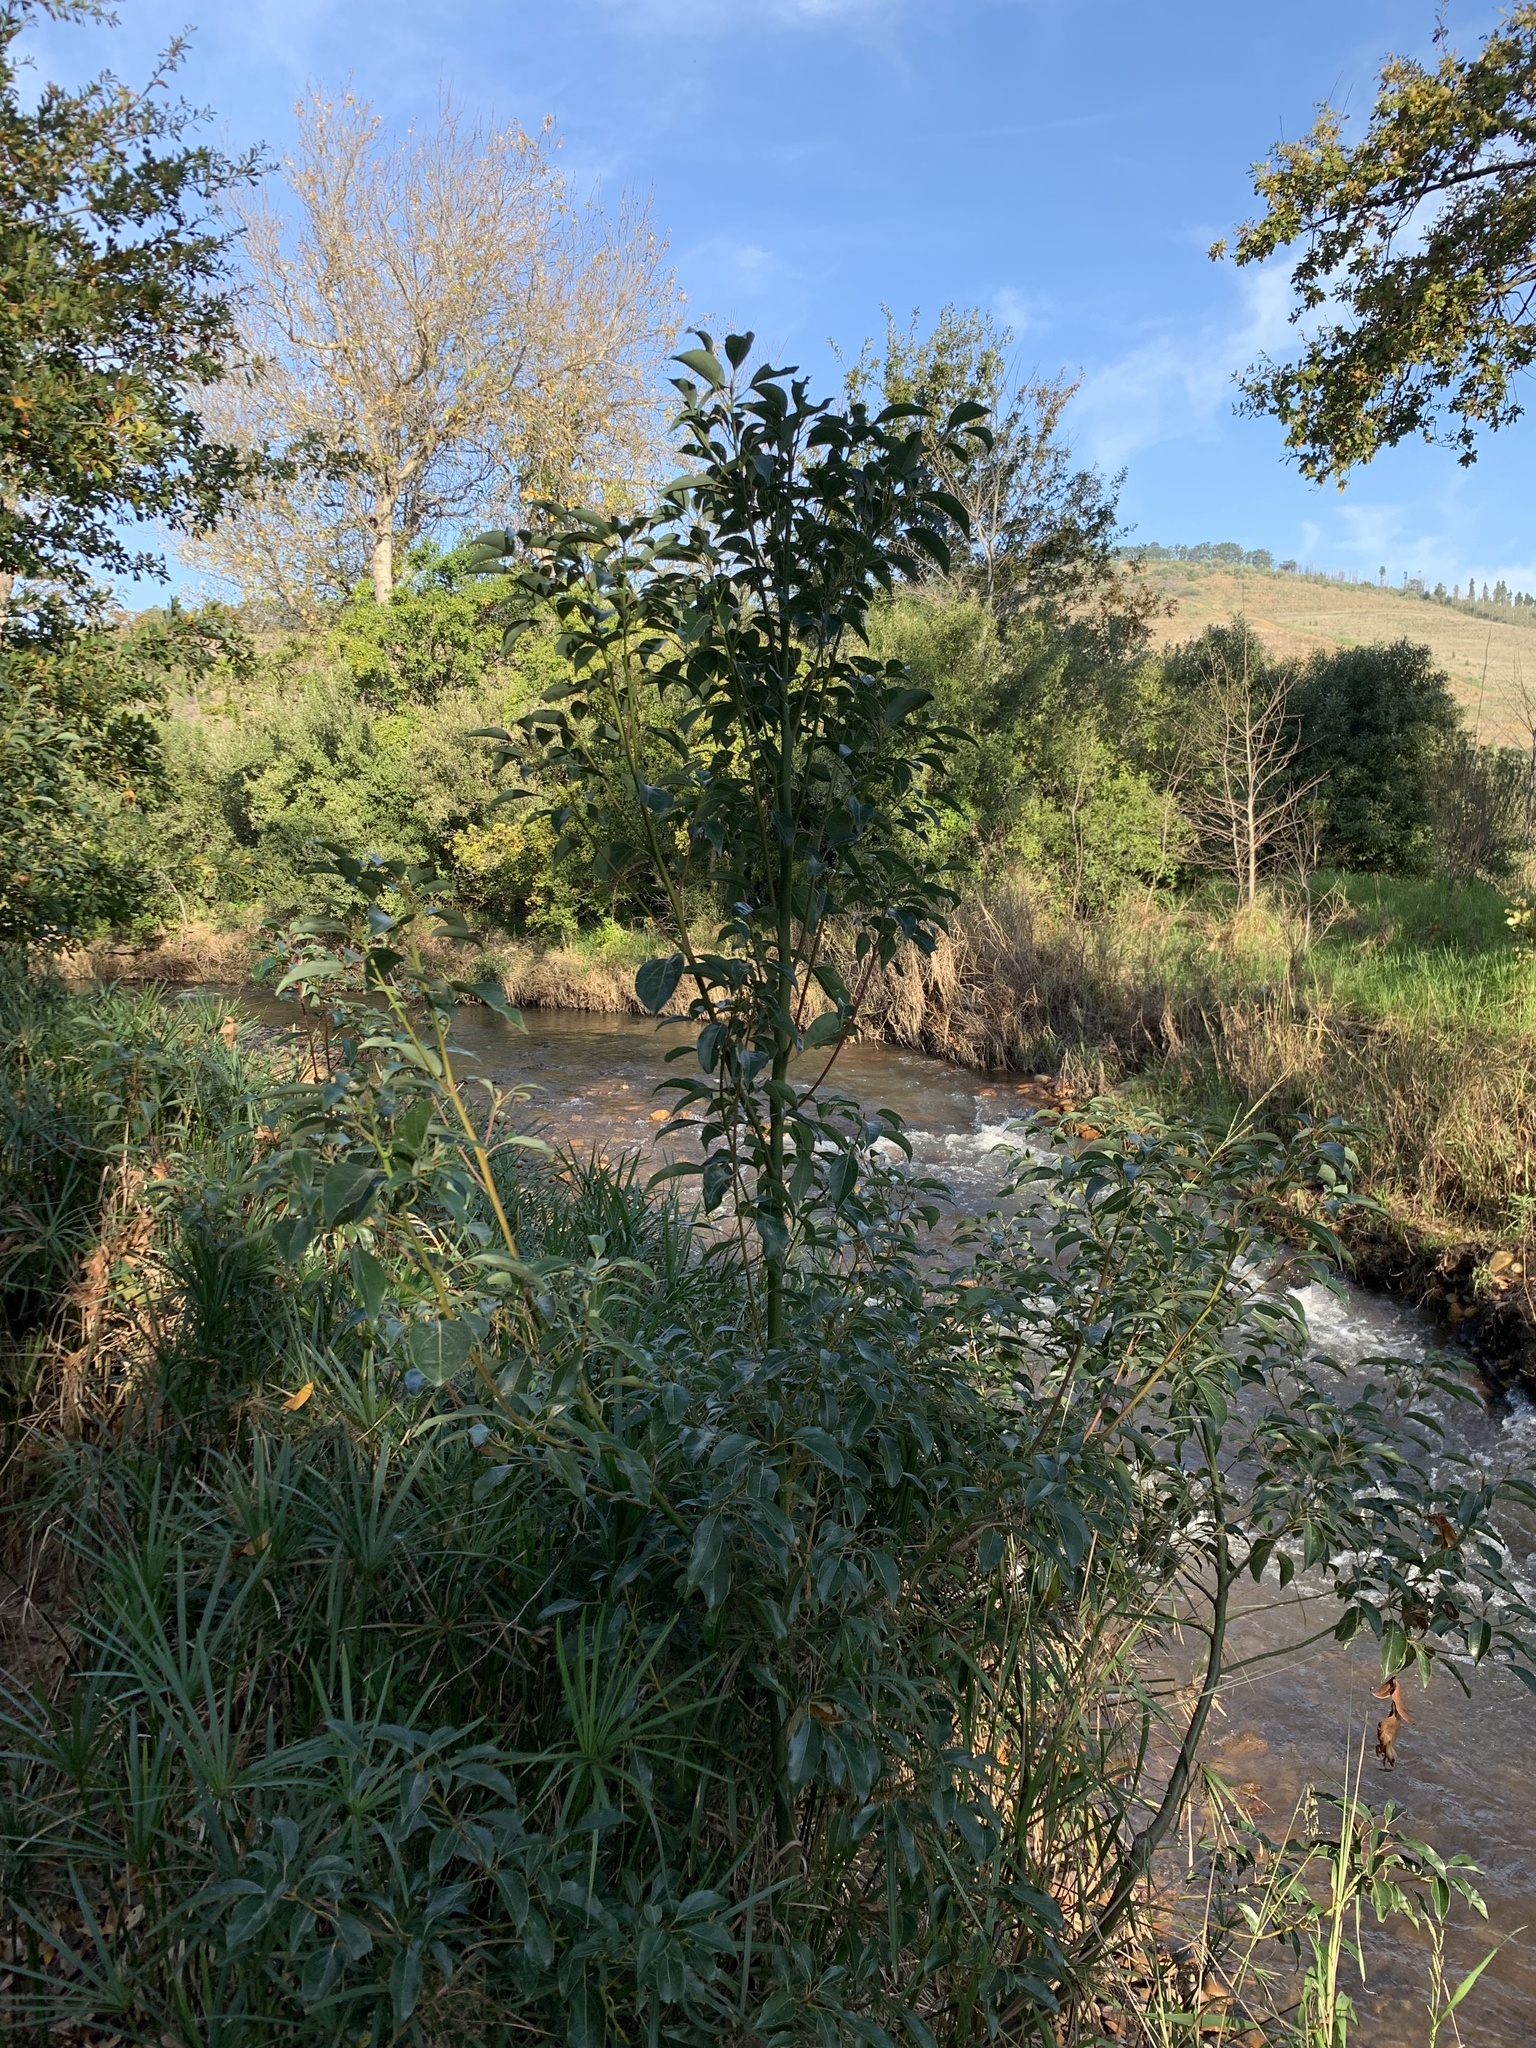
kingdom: Plantae
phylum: Tracheophyta
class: Magnoliopsida
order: Laurales
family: Lauraceae
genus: Cinnamomum
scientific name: Cinnamomum camphora
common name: Camphortree
